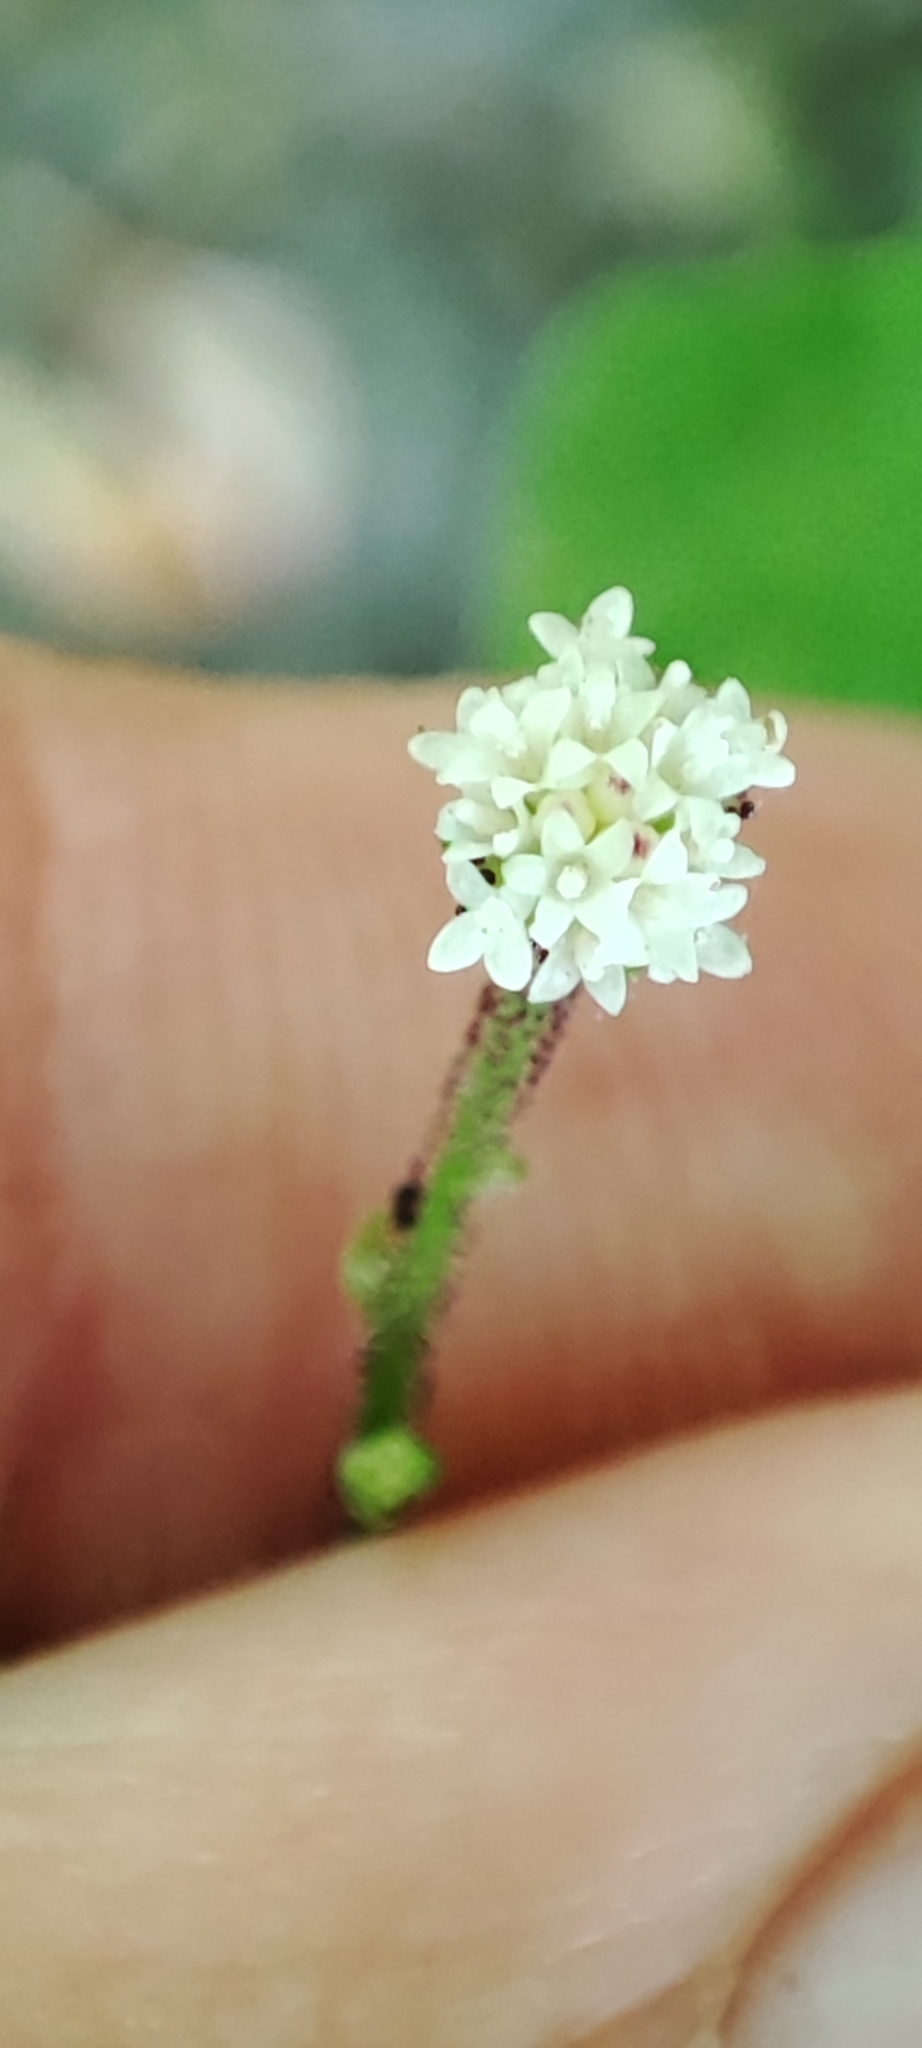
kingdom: Plantae
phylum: Tracheophyta
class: Magnoliopsida
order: Asterales
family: Asteraceae
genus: Adenocaulon
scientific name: Adenocaulon bicolor
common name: Trailplant
